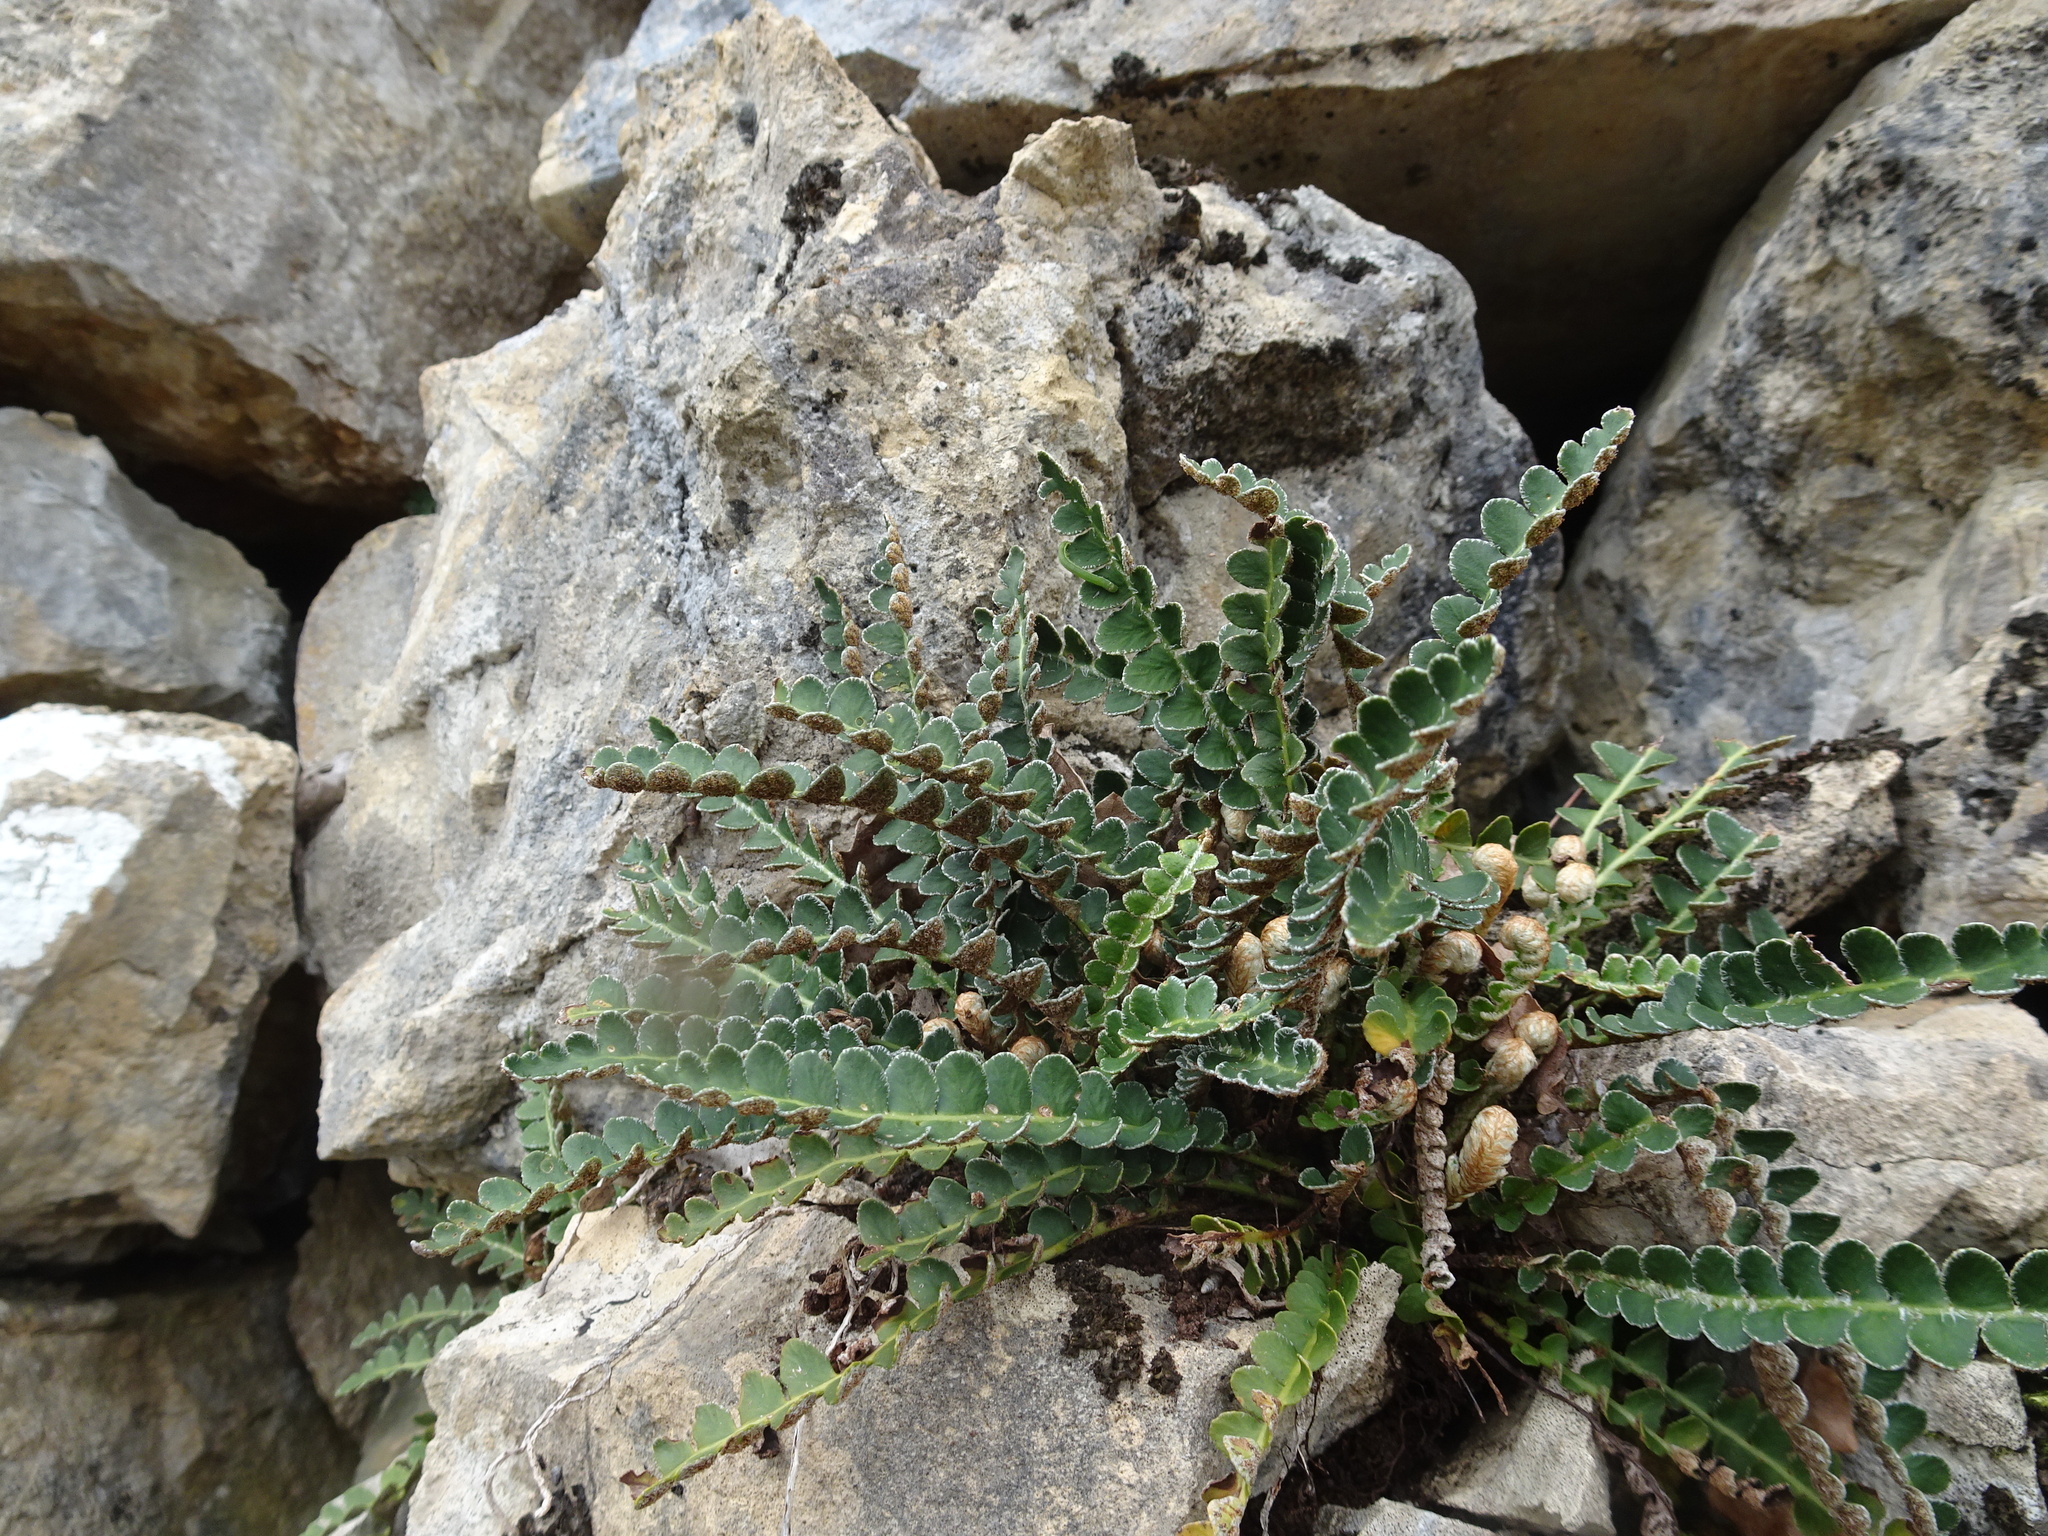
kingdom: Plantae
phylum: Tracheophyta
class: Polypodiopsida
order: Polypodiales
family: Aspleniaceae
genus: Asplenium
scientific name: Asplenium ceterach
